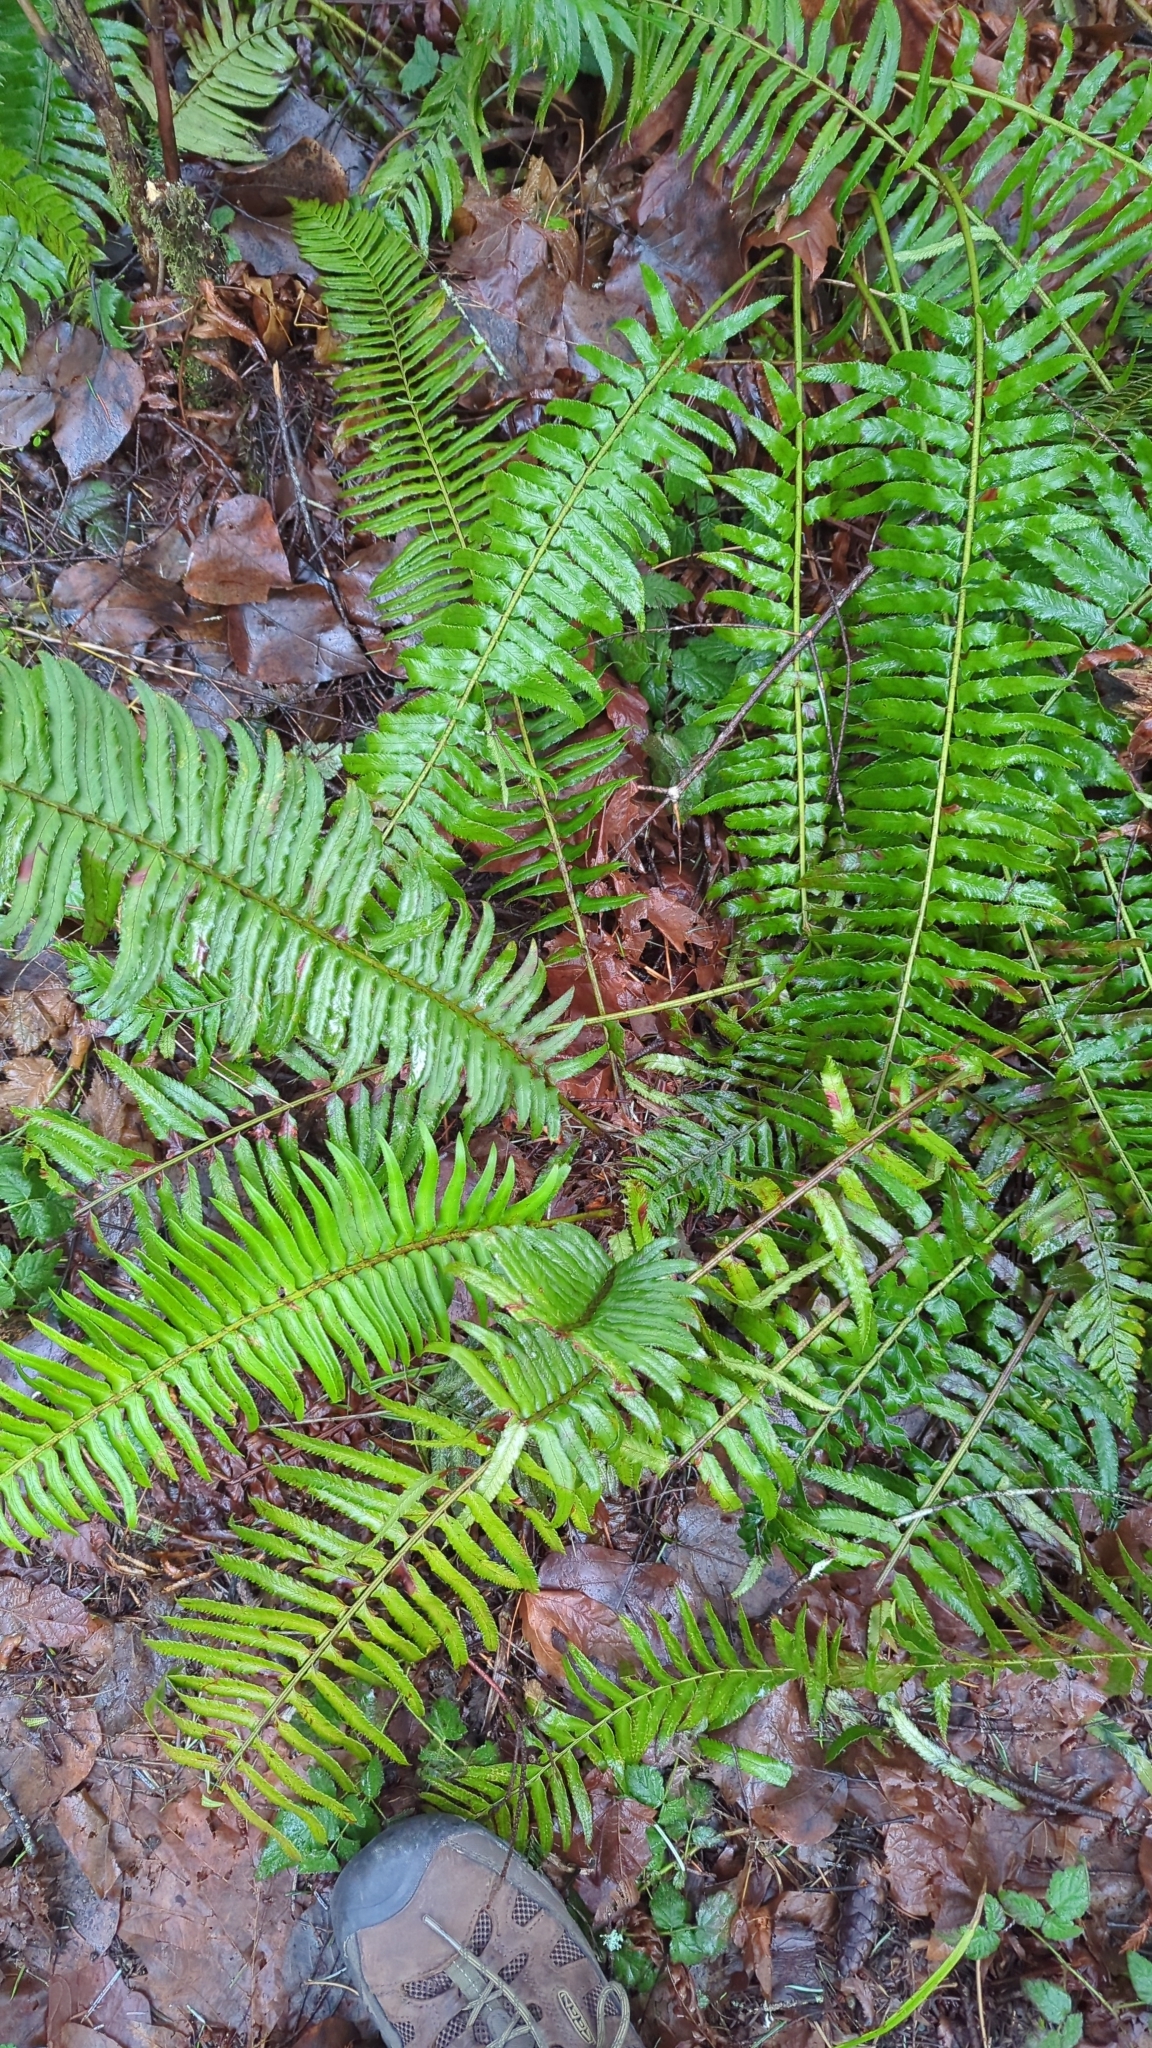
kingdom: Plantae
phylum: Tracheophyta
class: Polypodiopsida
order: Polypodiales
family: Dryopteridaceae
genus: Polystichum
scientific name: Polystichum munitum
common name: Western sword-fern
